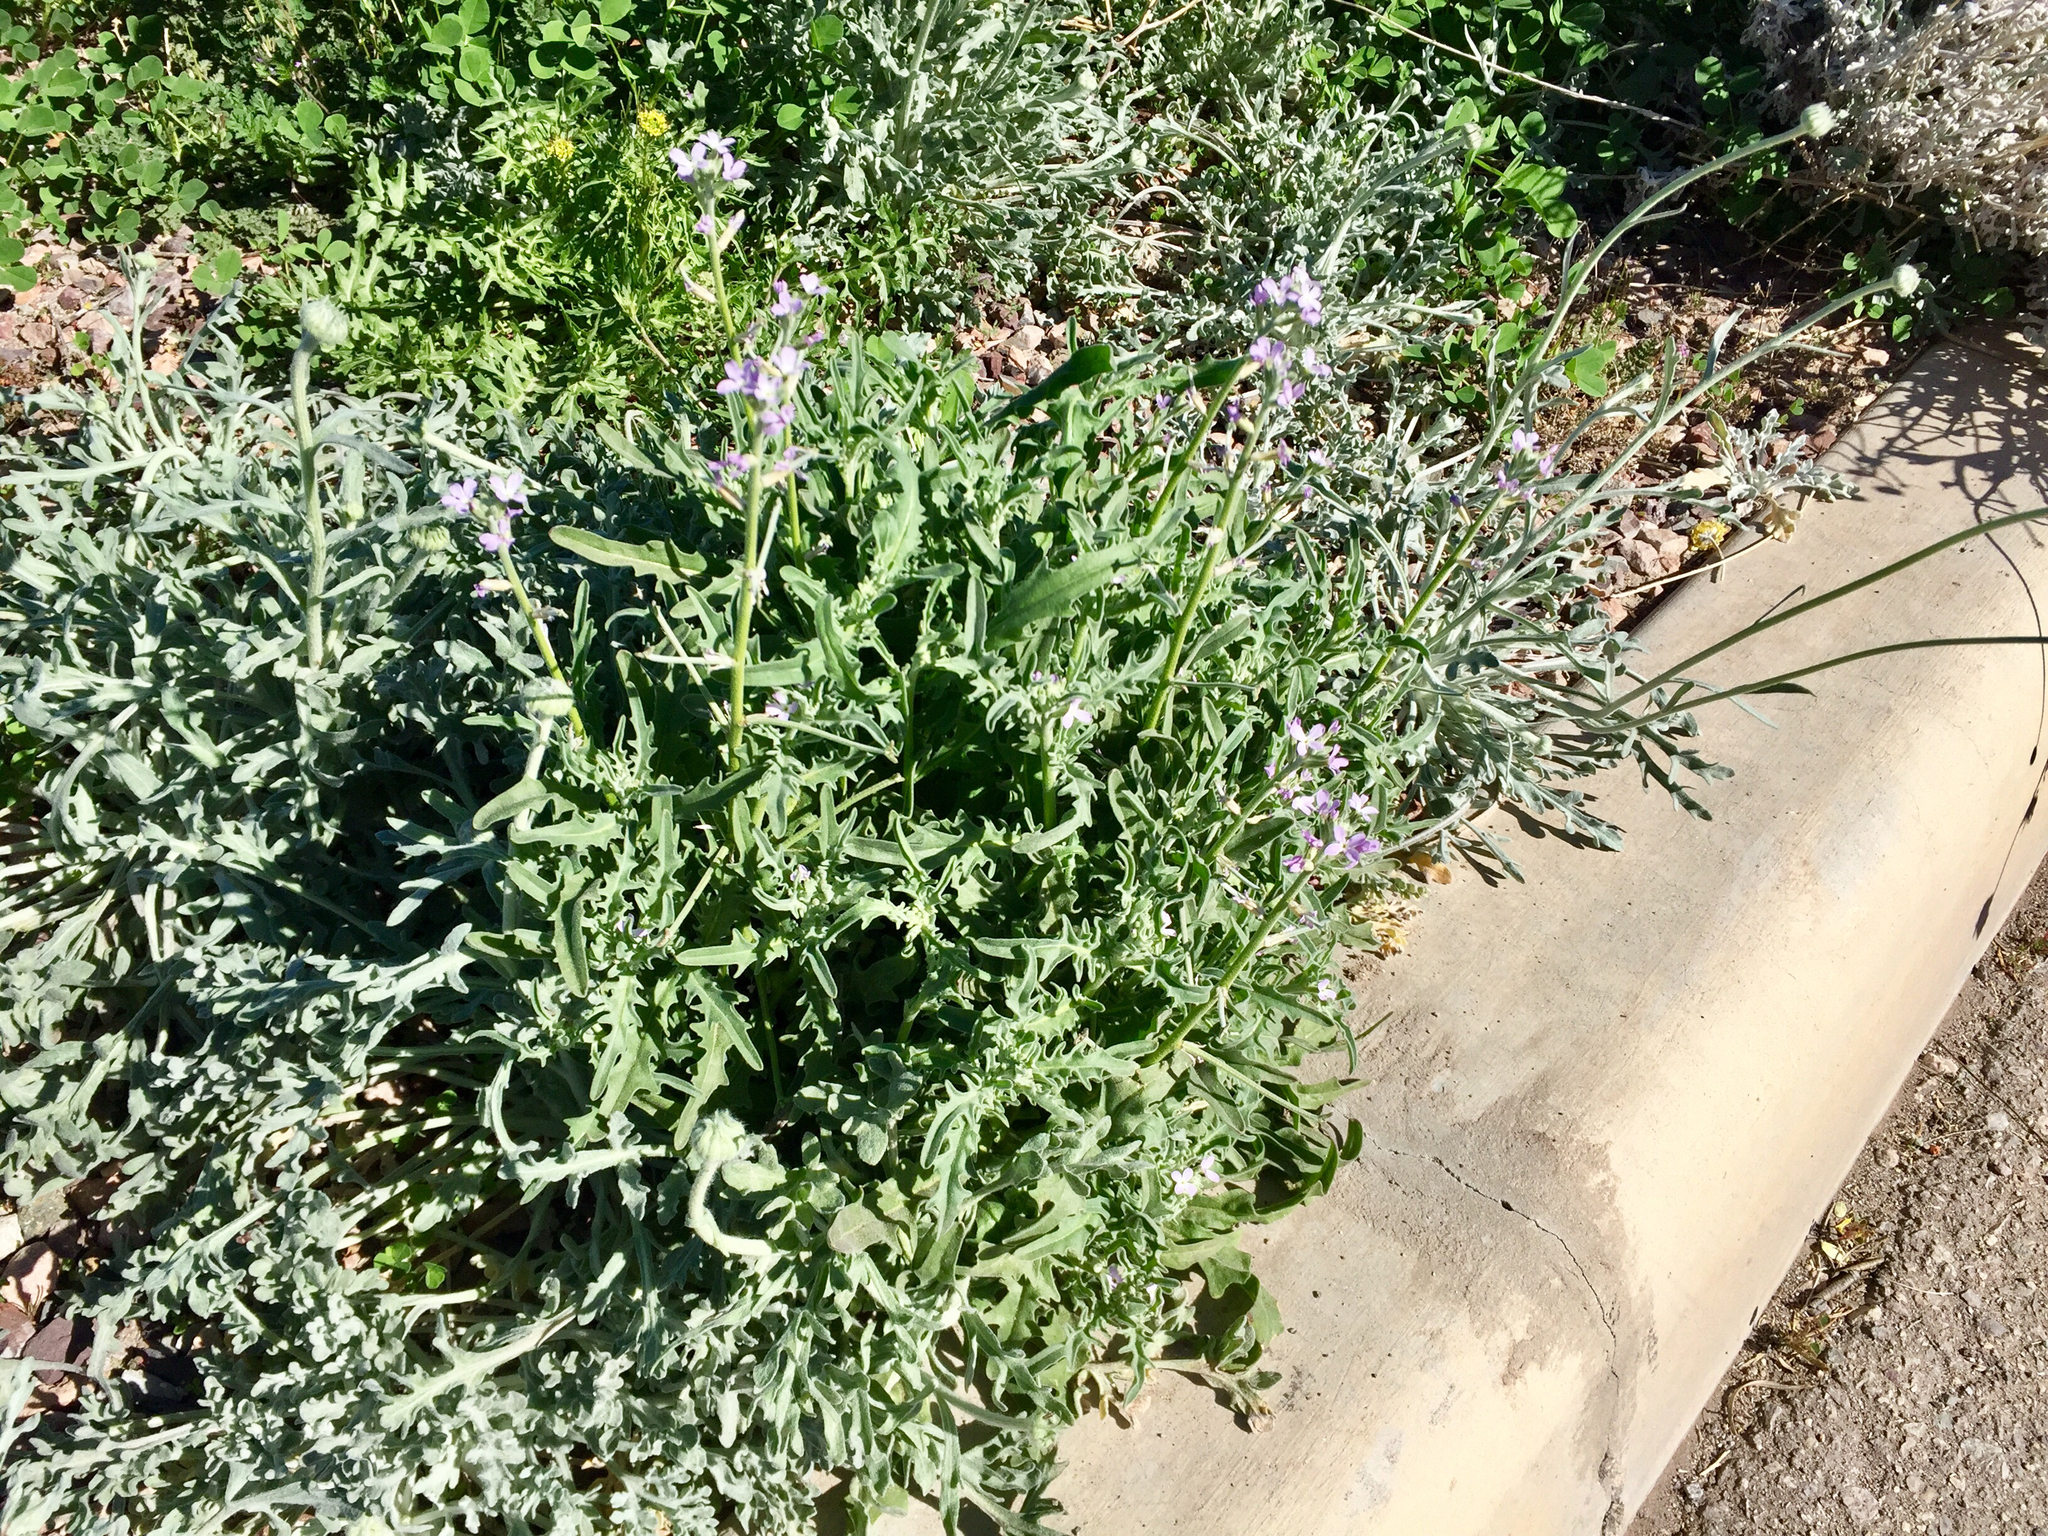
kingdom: Plantae
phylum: Tracheophyta
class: Magnoliopsida
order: Brassicales
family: Brassicaceae
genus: Matthiola
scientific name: Matthiola parviflora
